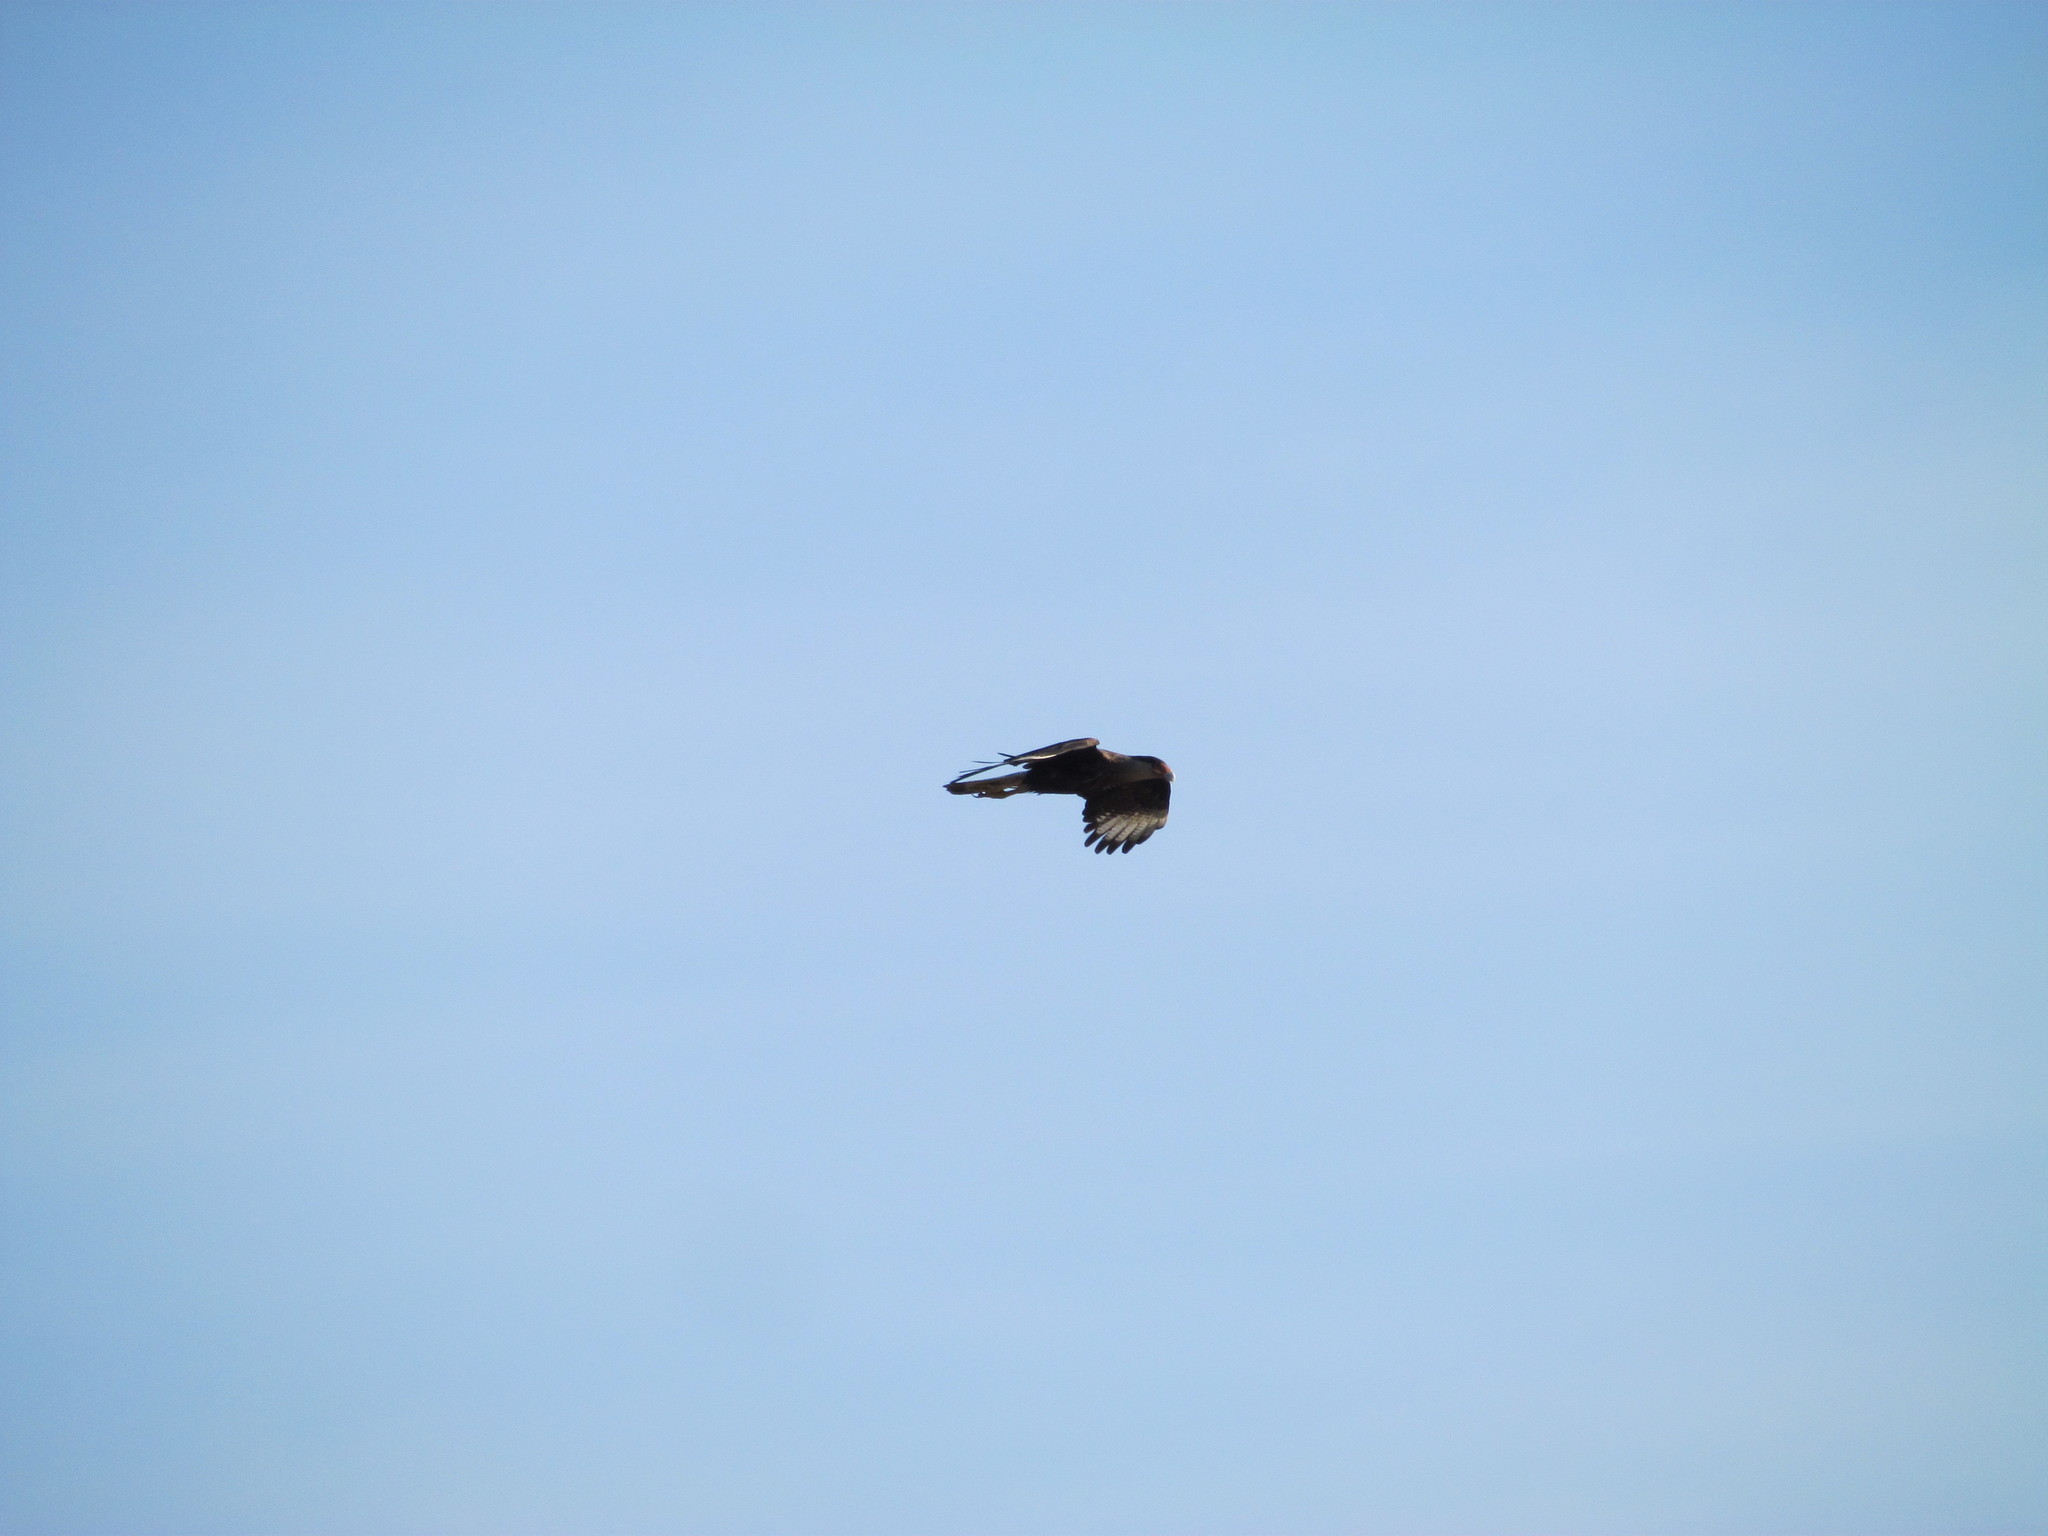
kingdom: Animalia
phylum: Chordata
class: Aves
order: Falconiformes
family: Falconidae
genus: Caracara
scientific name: Caracara plancus
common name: Southern caracara
